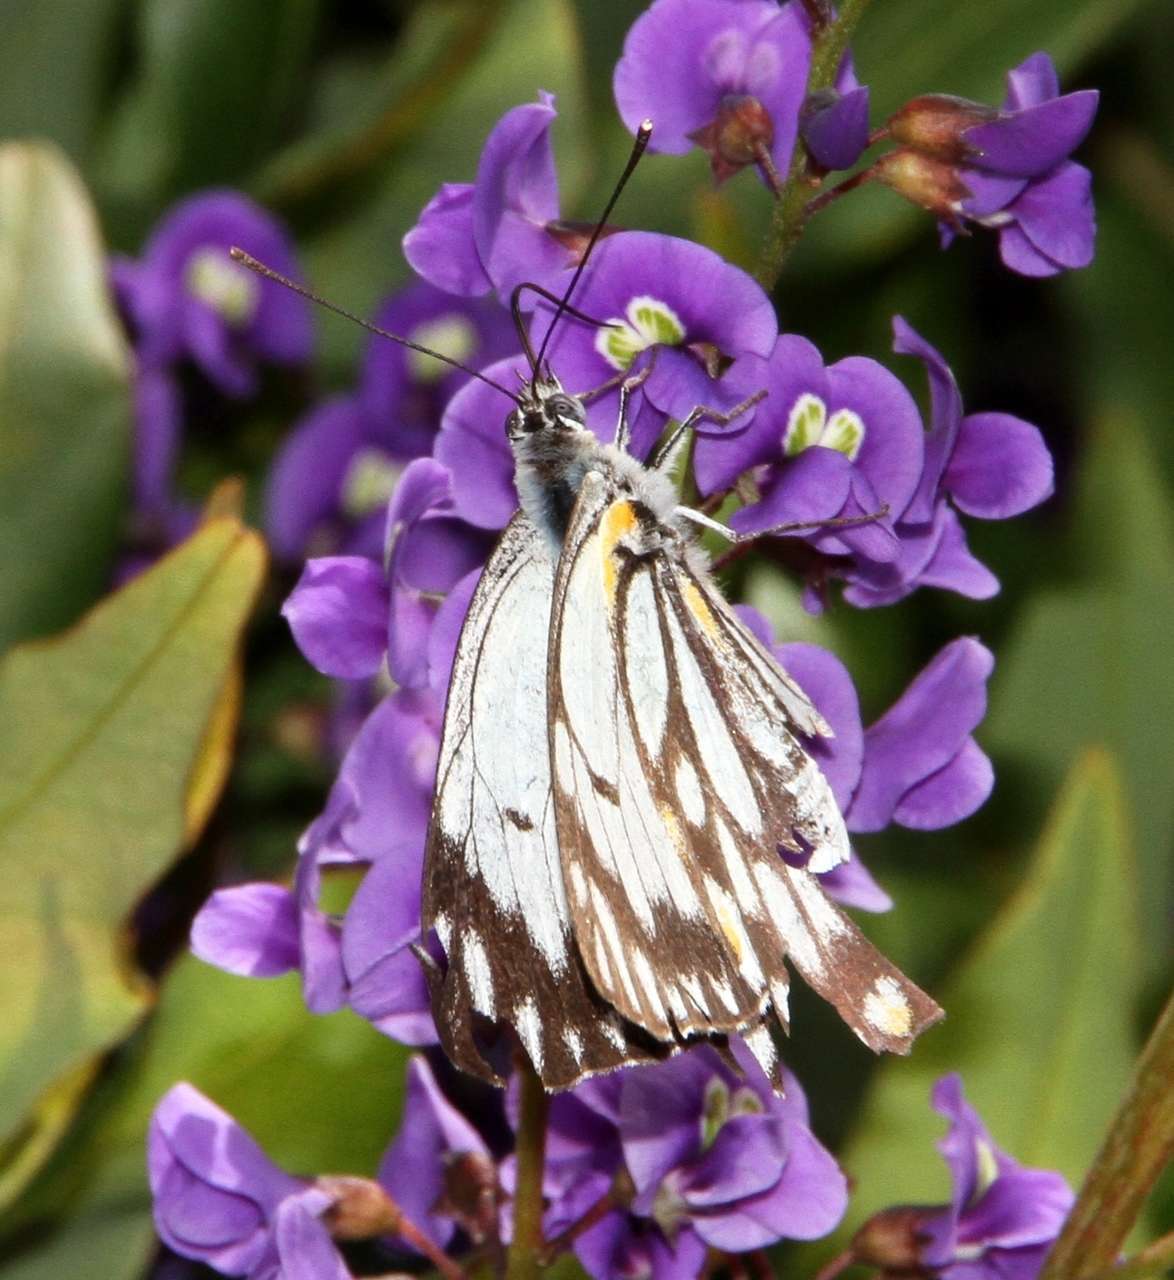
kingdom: Animalia
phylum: Arthropoda
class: Insecta
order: Lepidoptera
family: Pieridae
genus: Belenois
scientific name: Belenois java
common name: Caper white
